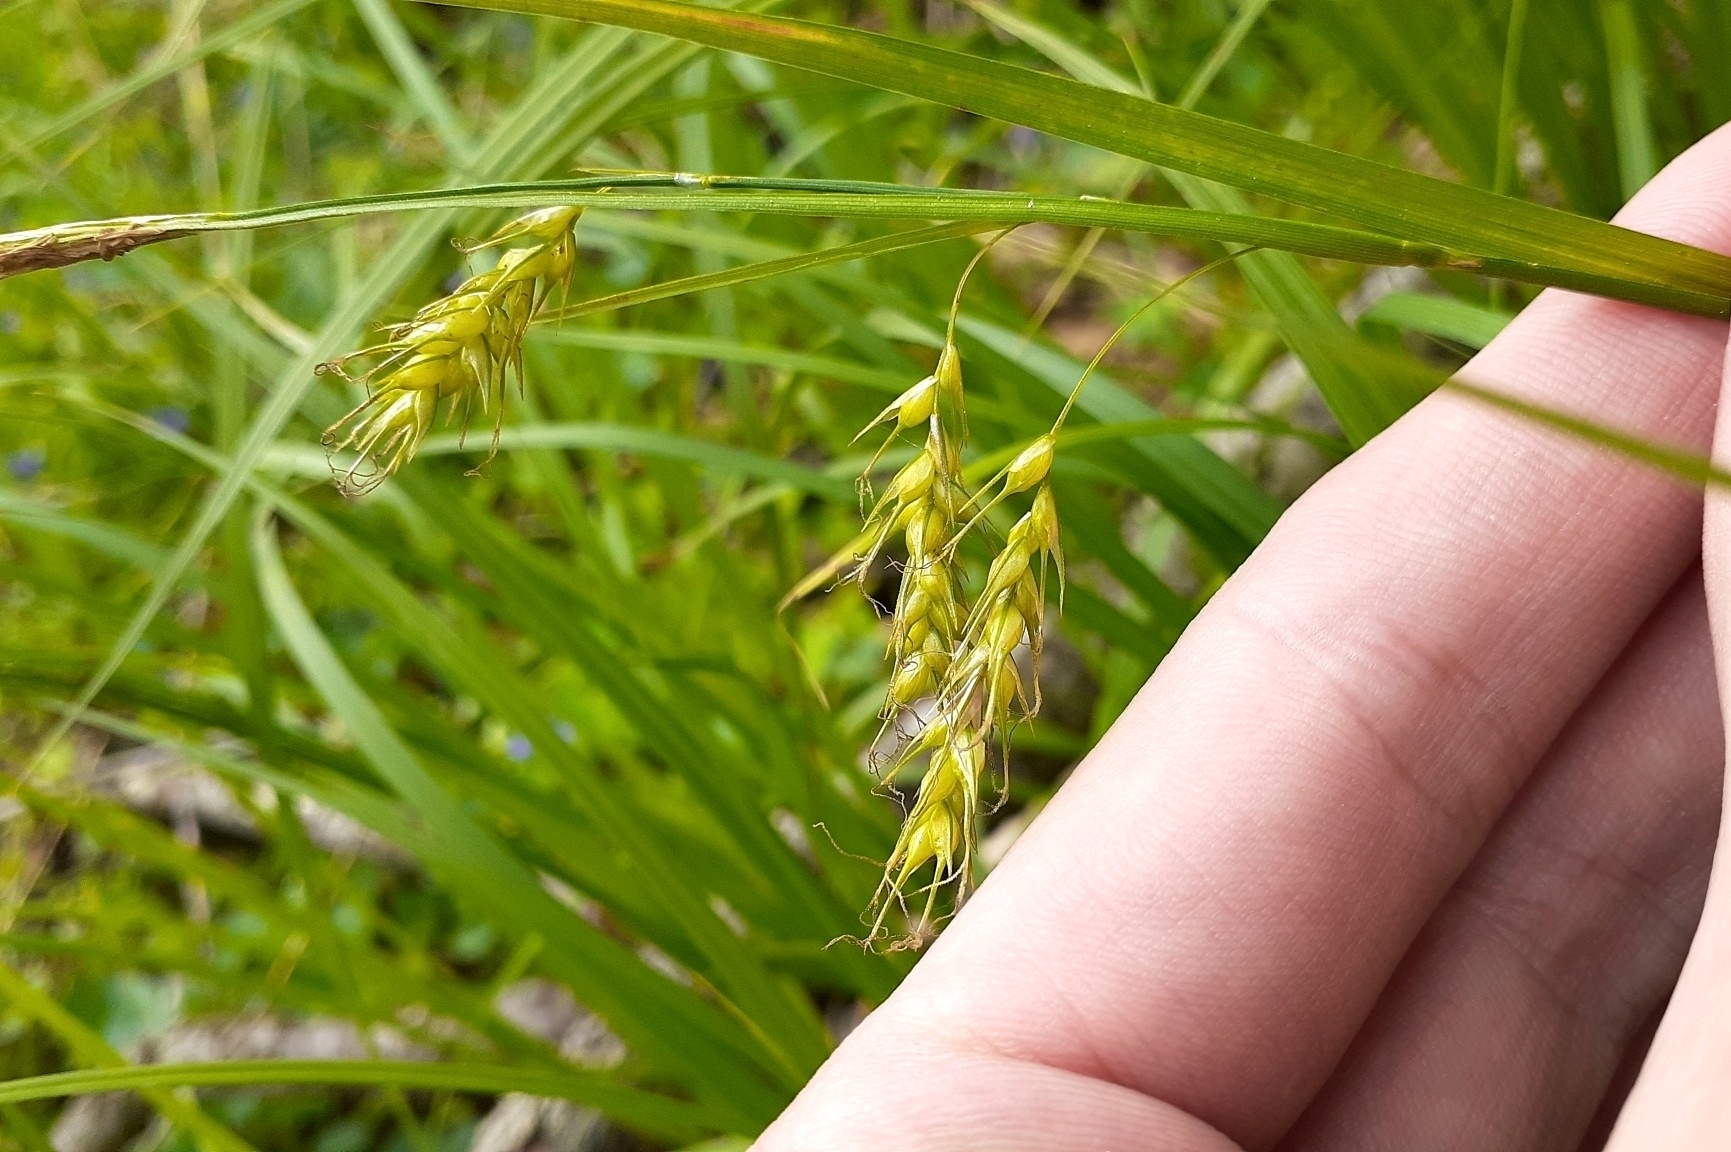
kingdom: Plantae
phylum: Tracheophyta
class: Liliopsida
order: Poales
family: Cyperaceae
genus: Carex
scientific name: Carex sprengelii
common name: Long-beaked sedge
